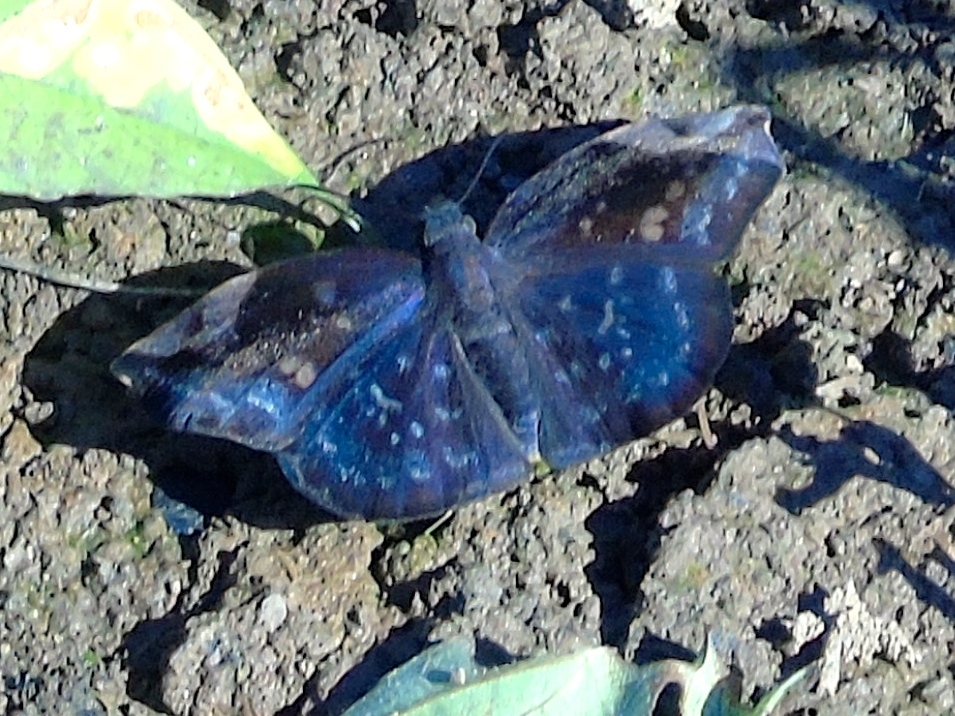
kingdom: Animalia
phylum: Arthropoda
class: Insecta
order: Lepidoptera
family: Hesperiidae
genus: Achlyodes
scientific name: Achlyodes thraso
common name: Sickle-winged skipper
